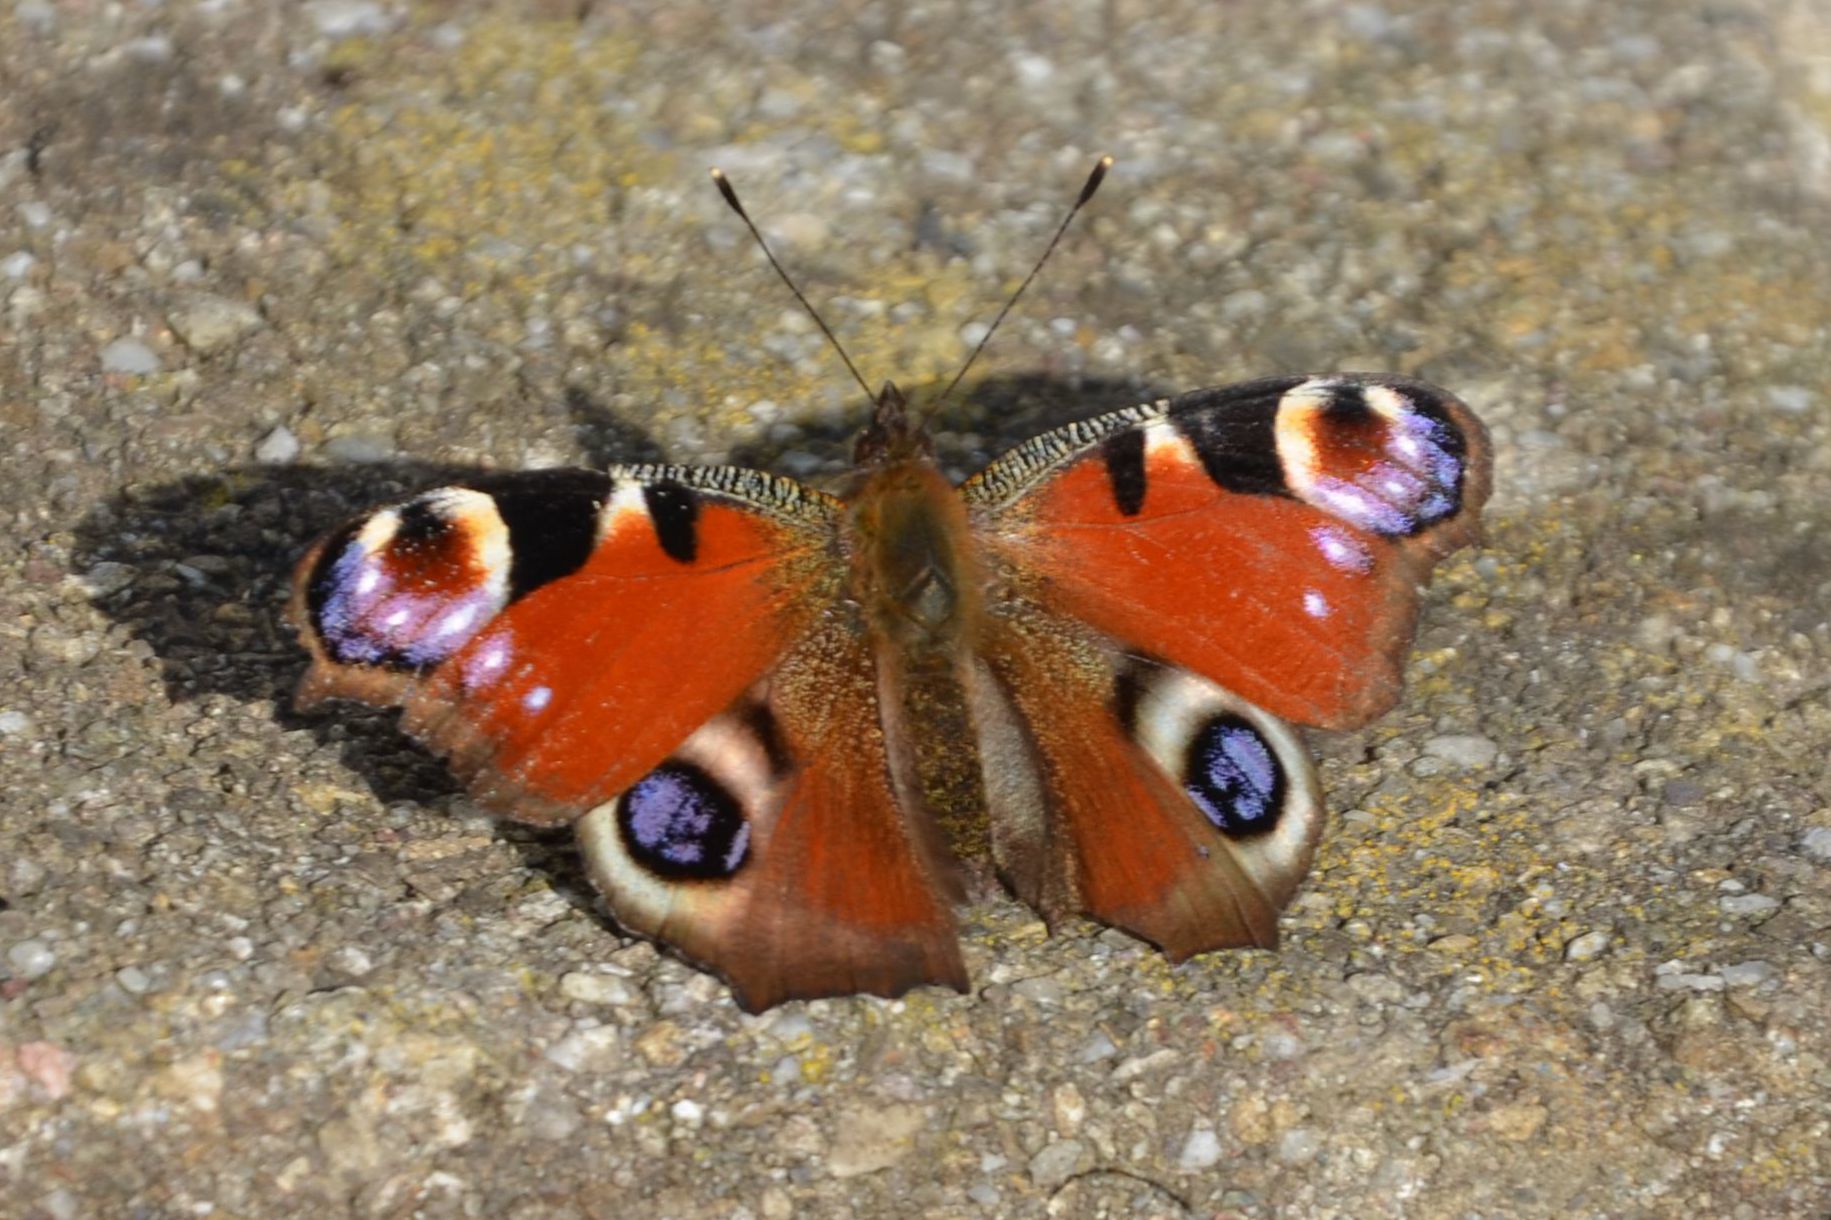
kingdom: Animalia
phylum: Arthropoda
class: Insecta
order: Lepidoptera
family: Nymphalidae
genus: Aglais
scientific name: Aglais io
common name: Peacock
